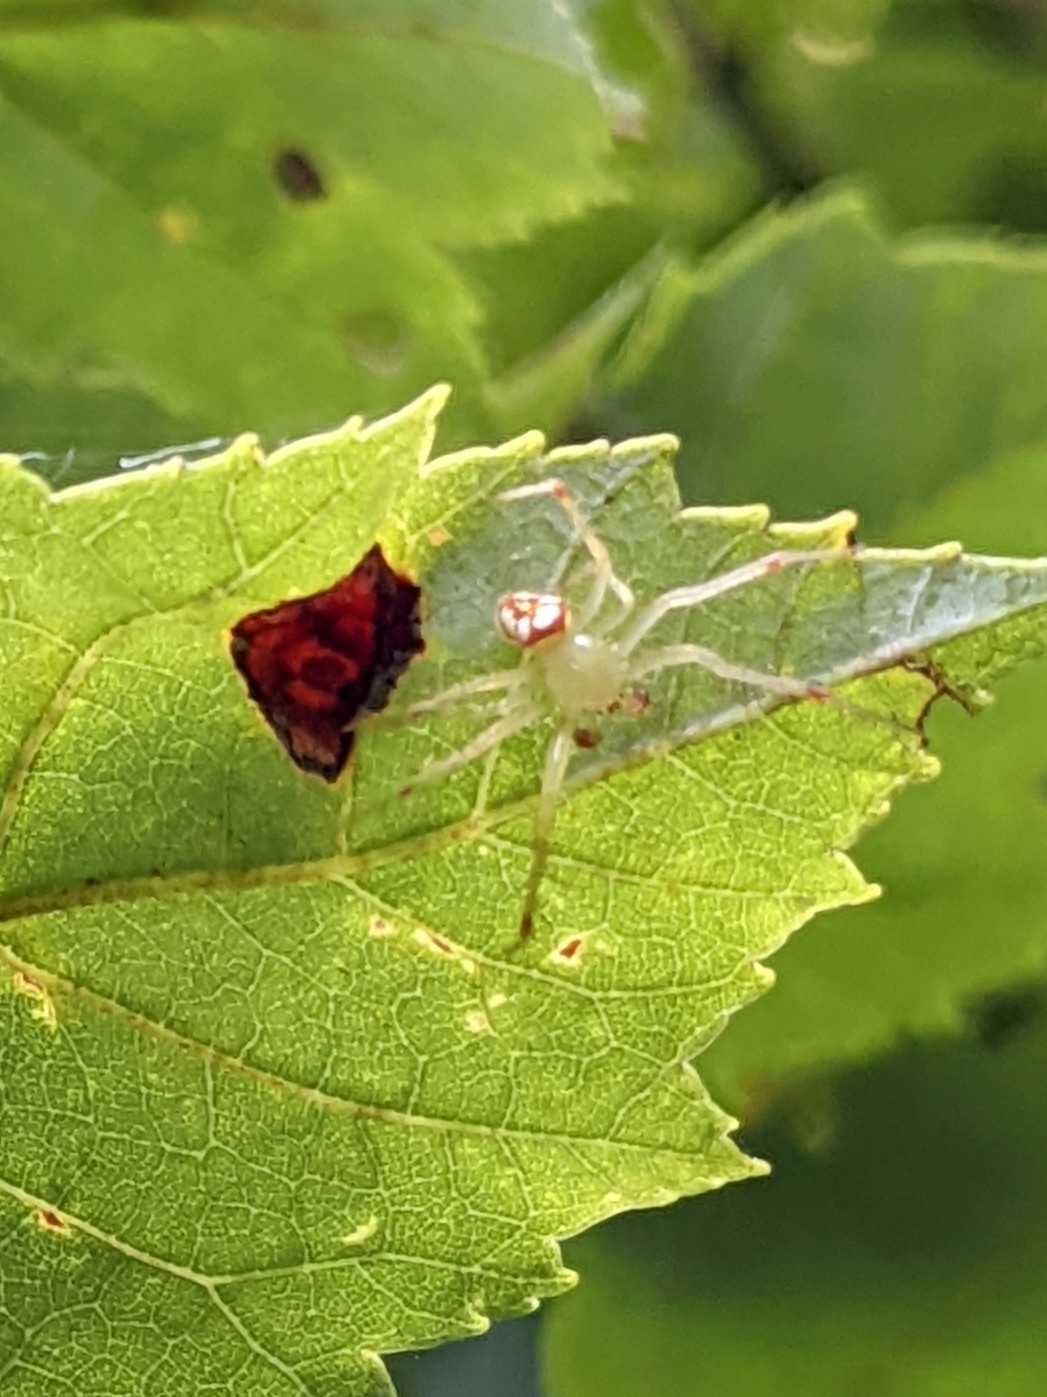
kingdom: Animalia
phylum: Arthropoda
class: Arachnida
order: Araneae
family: Araneidae
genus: Araneus
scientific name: Araneus guttulatus
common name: Red-backed orbweaver
